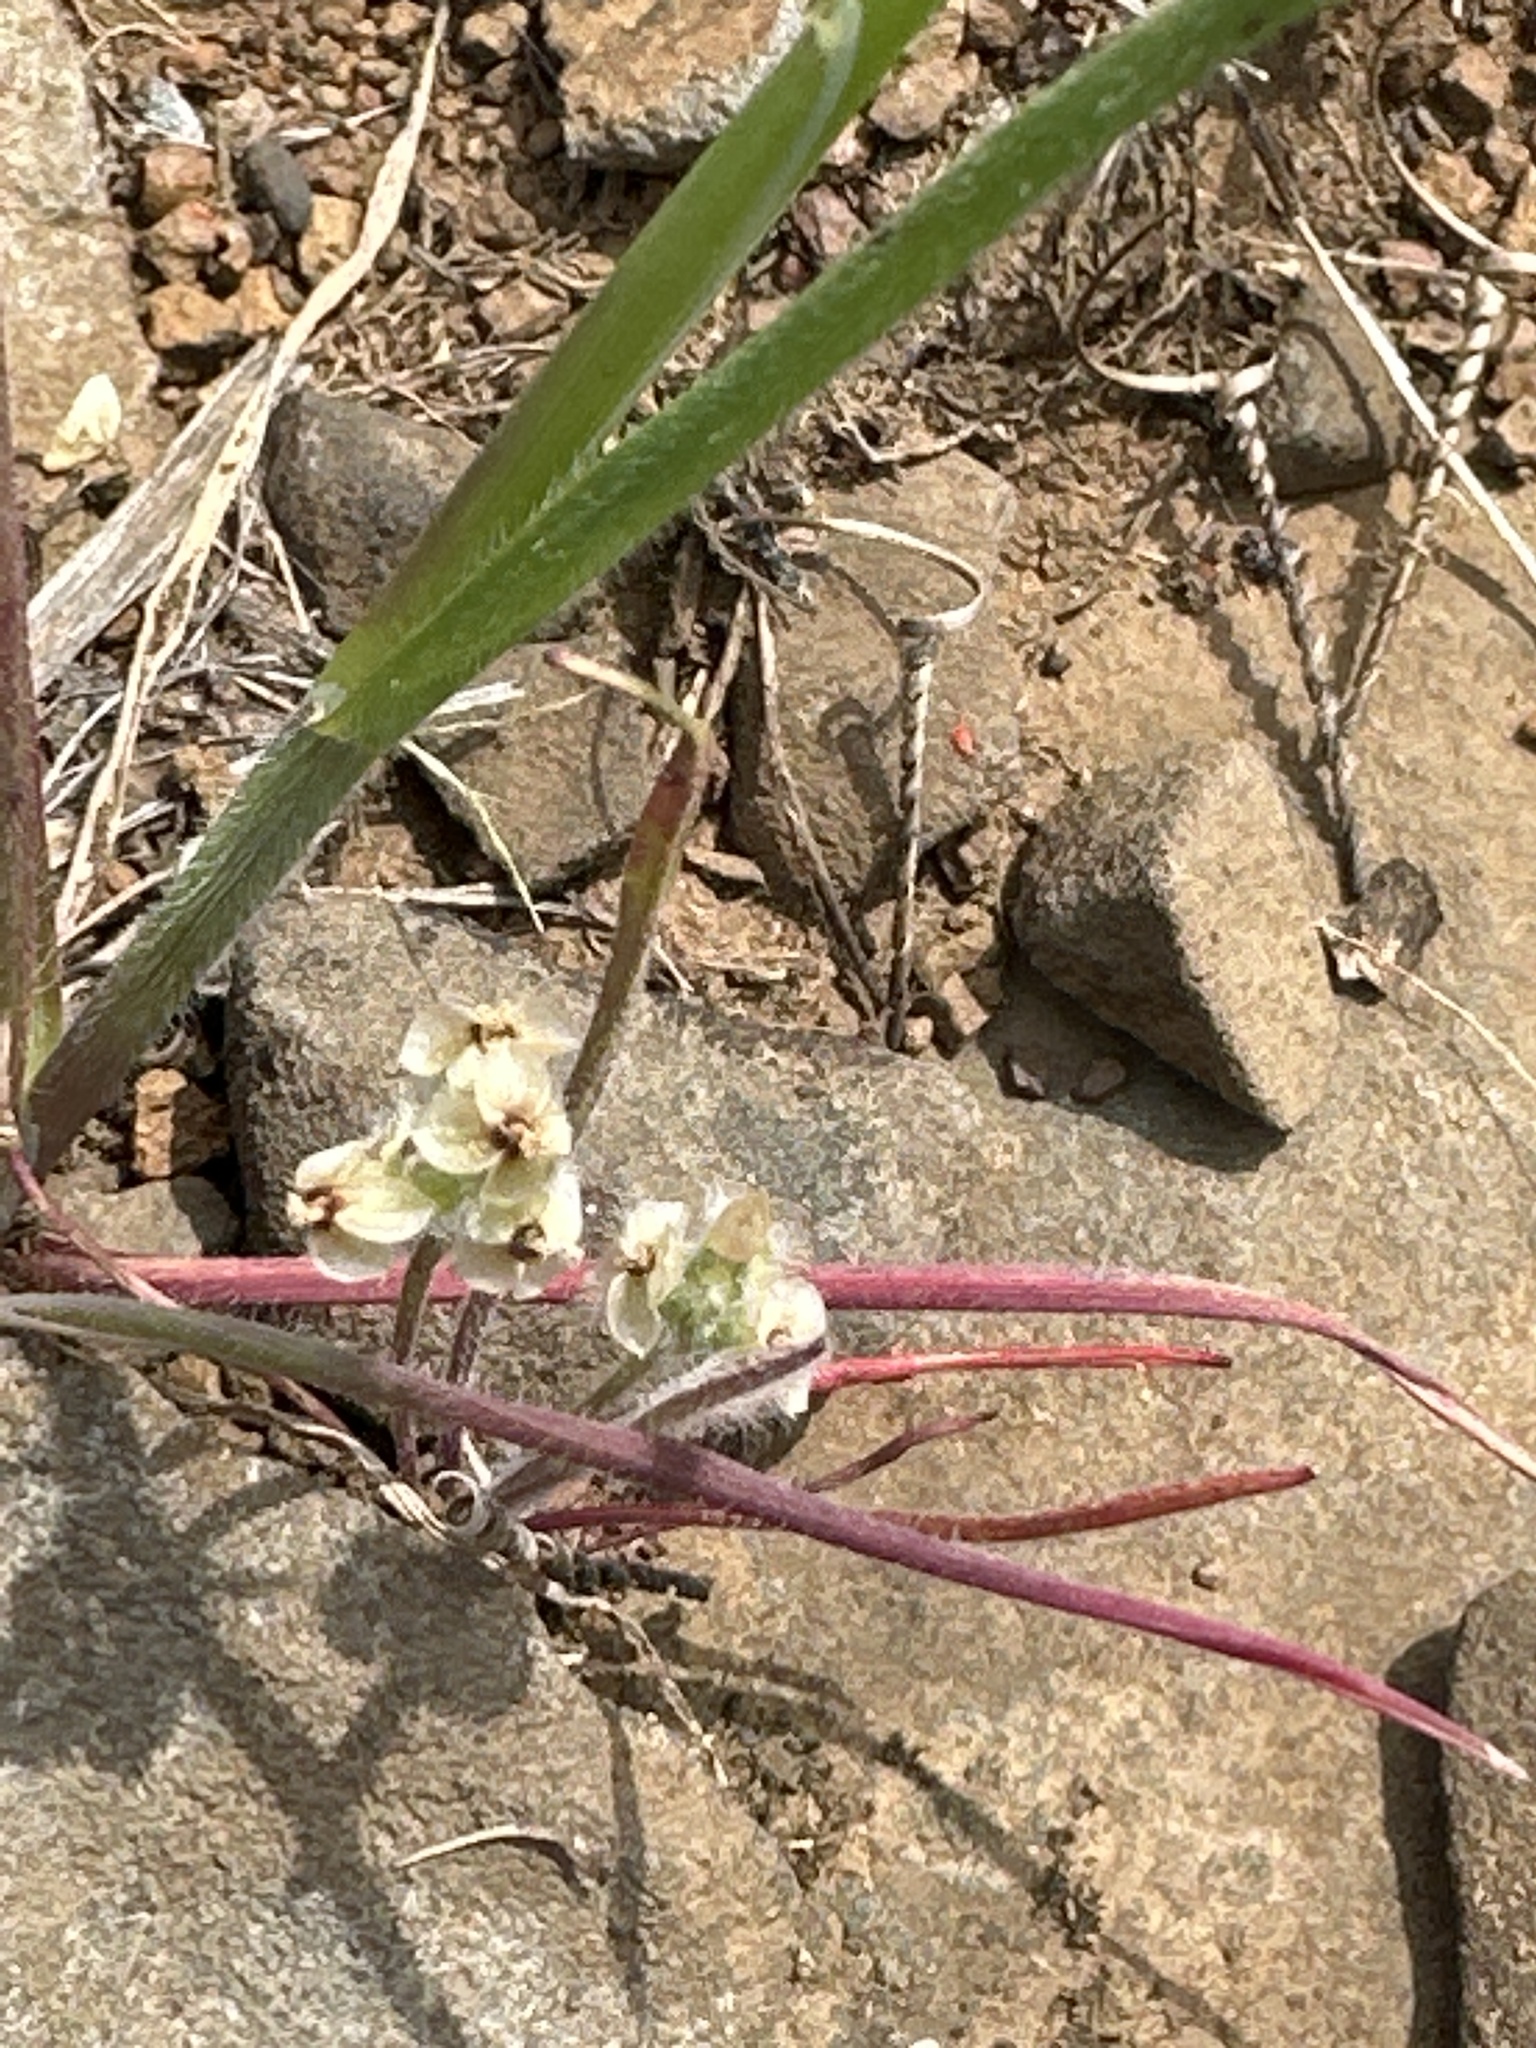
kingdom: Plantae
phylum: Tracheophyta
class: Magnoliopsida
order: Lamiales
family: Plantaginaceae
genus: Plantago
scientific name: Plantago erecta
